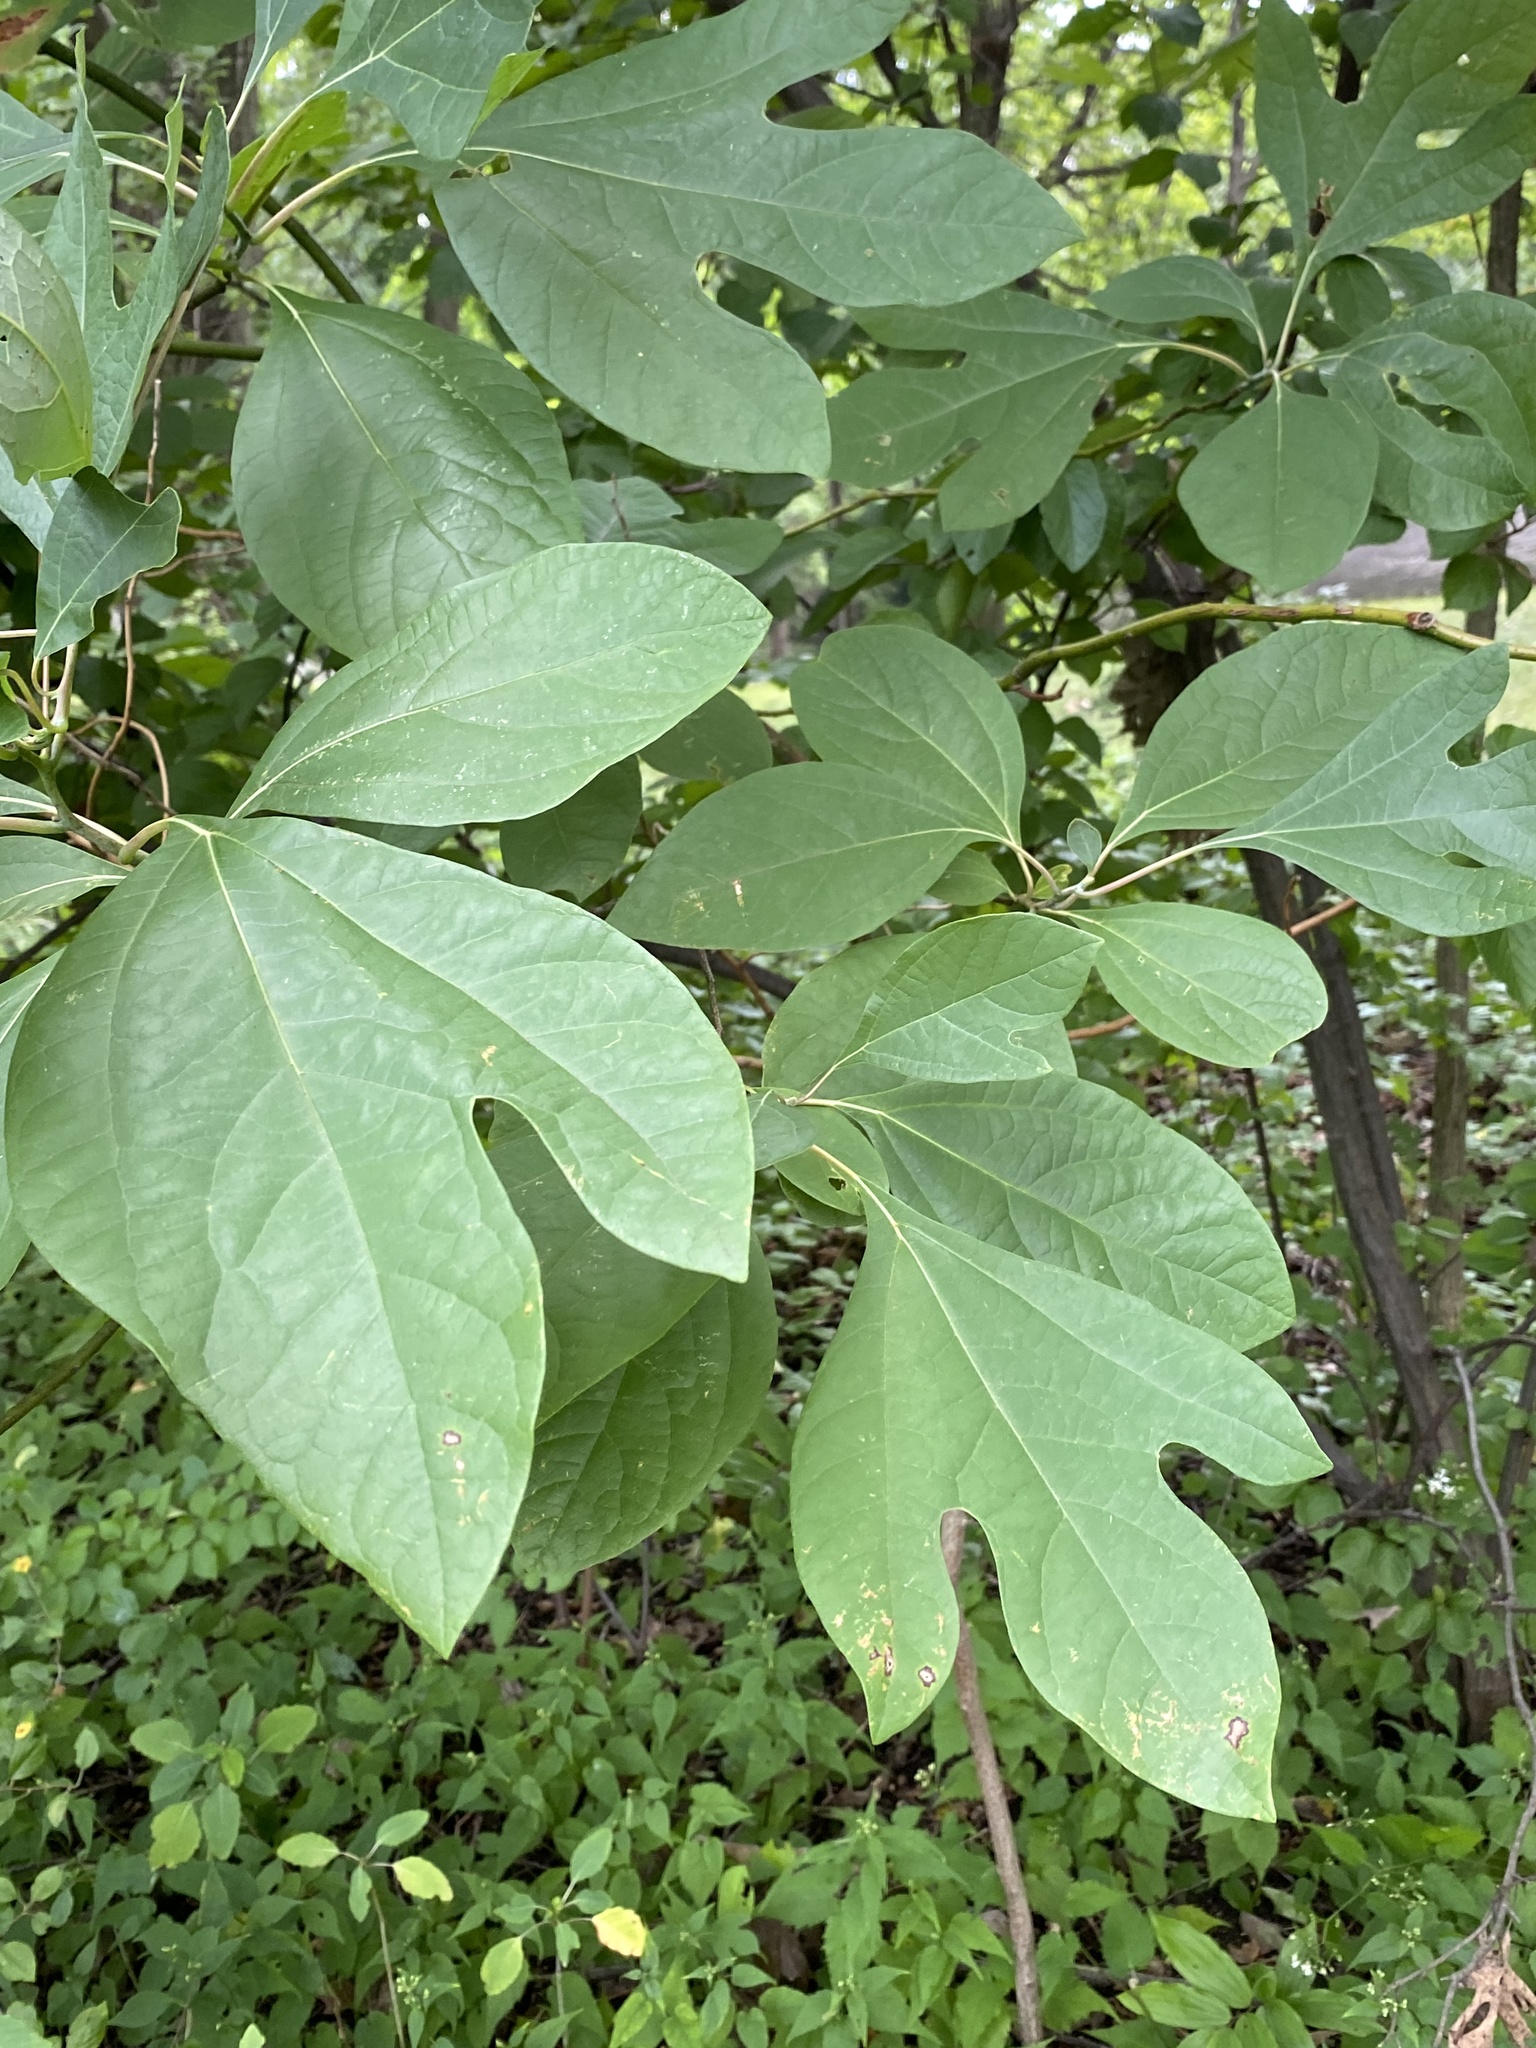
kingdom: Plantae
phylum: Tracheophyta
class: Magnoliopsida
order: Laurales
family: Lauraceae
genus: Sassafras
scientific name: Sassafras albidum
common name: Sassafras
